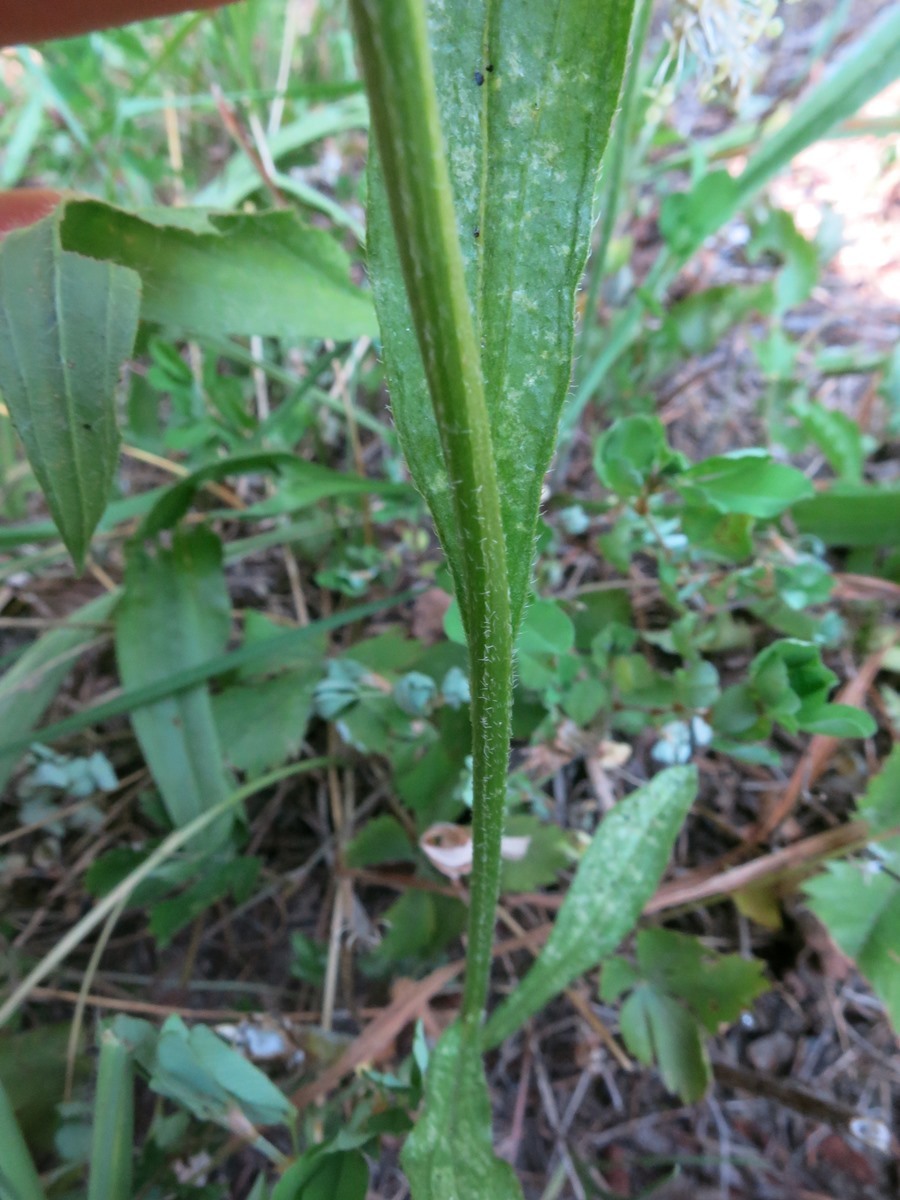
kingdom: Plantae
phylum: Tracheophyta
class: Magnoliopsida
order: Asterales
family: Asteraceae
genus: Erigeron
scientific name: Erigeron strigosus
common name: Common eastern fleabane
